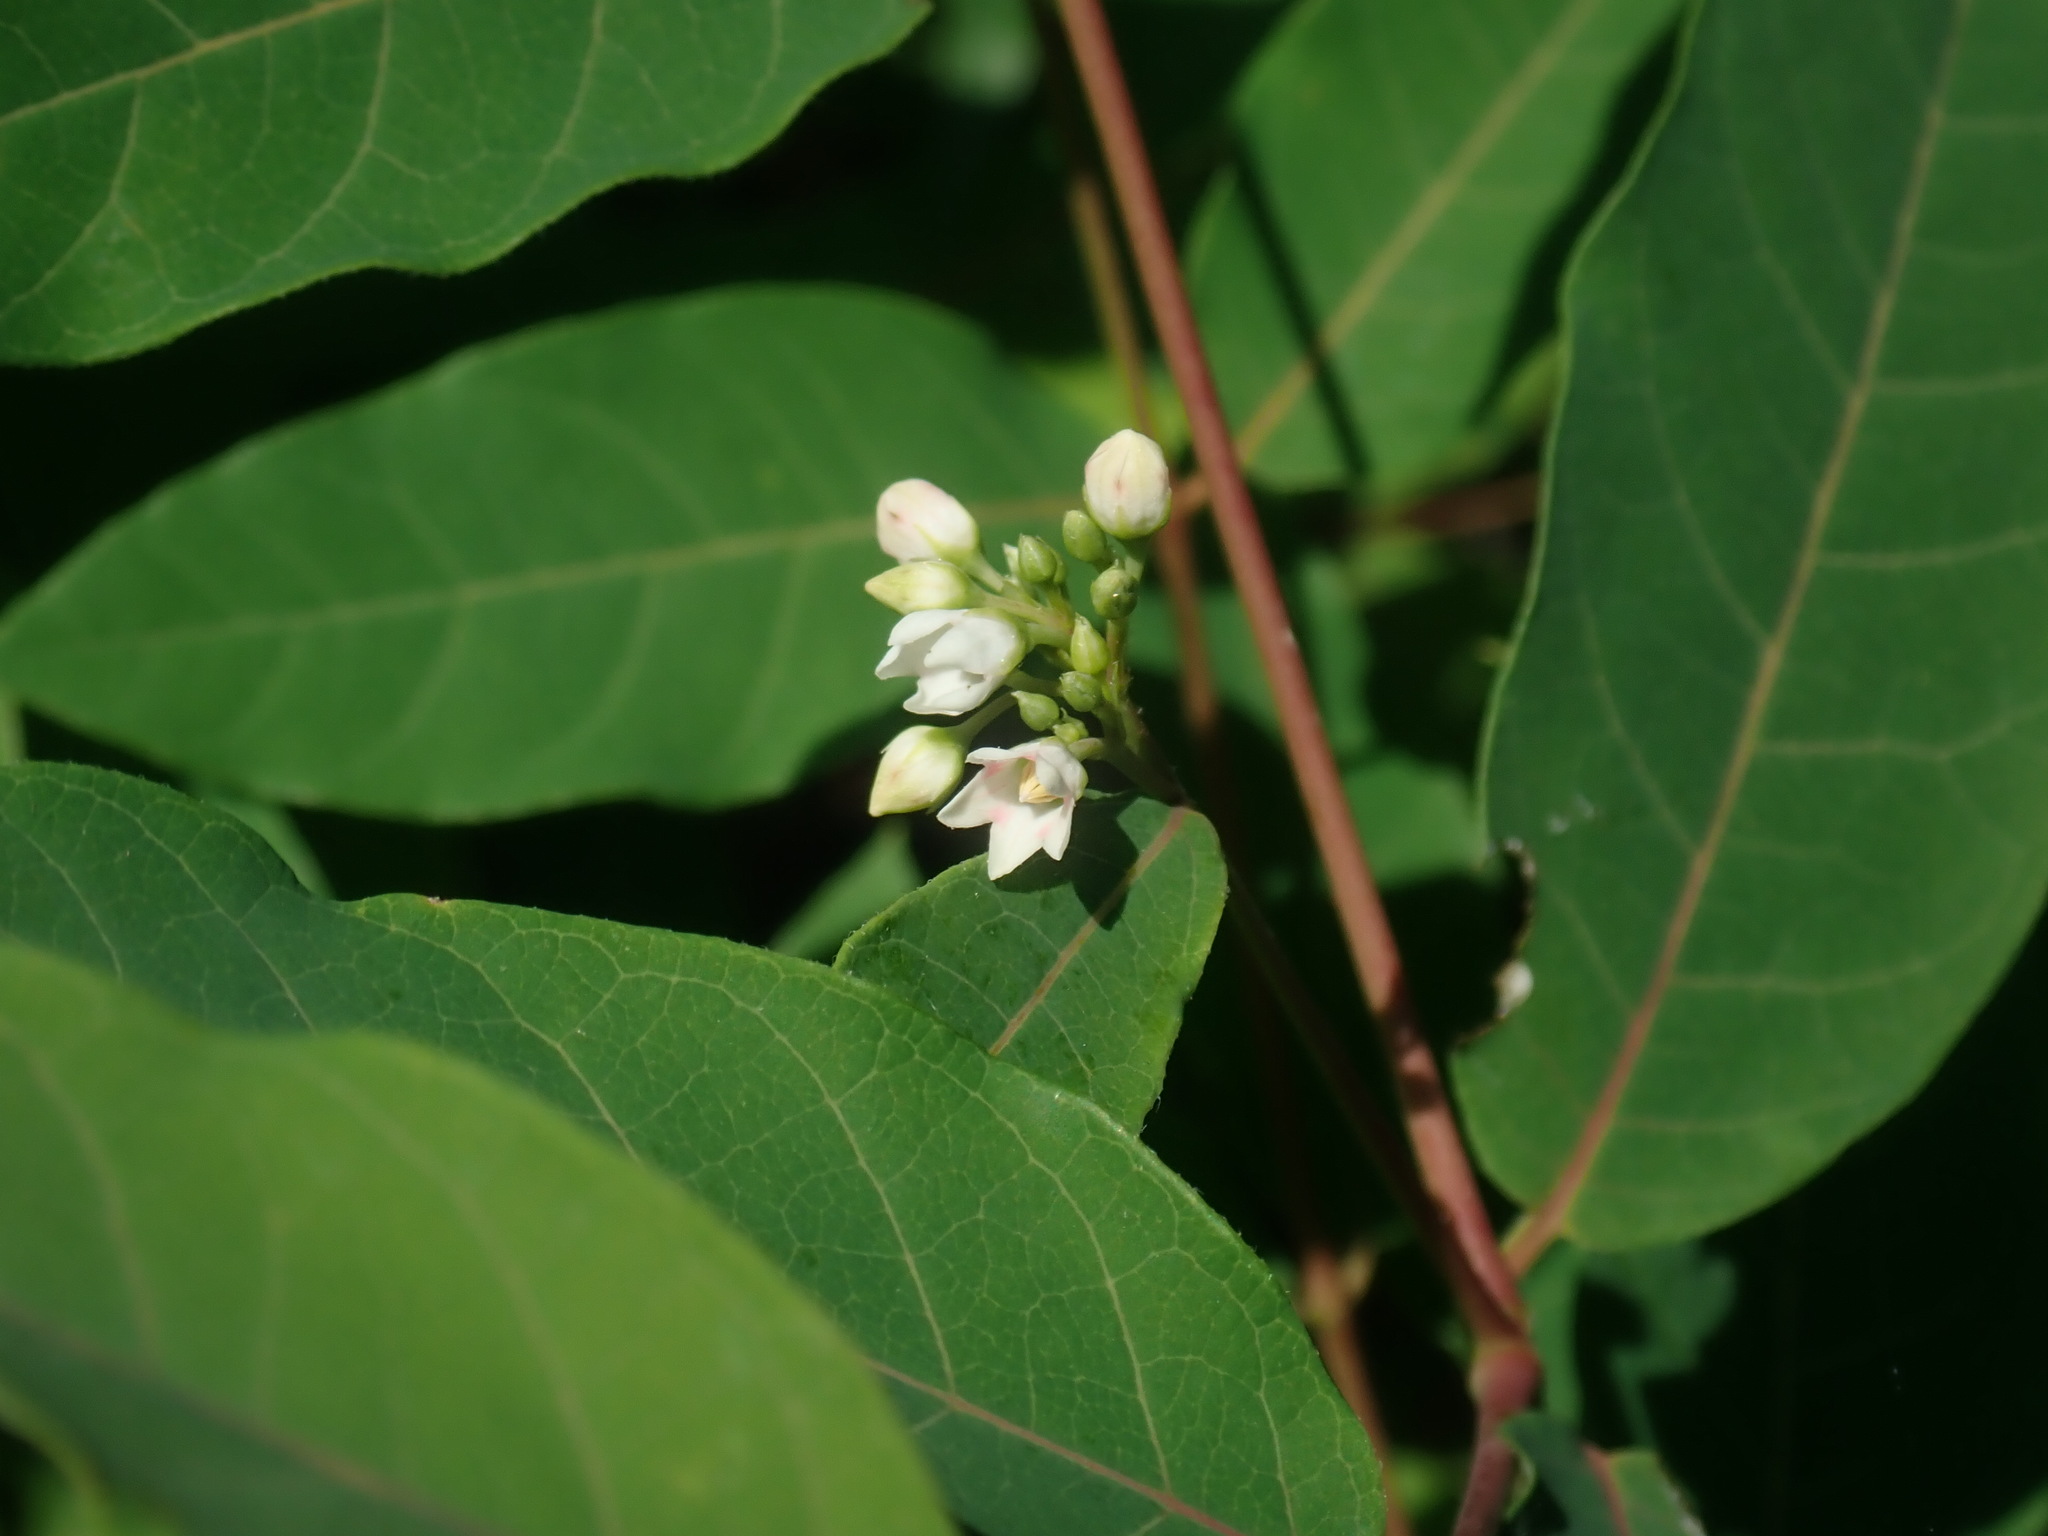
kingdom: Plantae
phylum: Tracheophyta
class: Magnoliopsida
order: Gentianales
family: Apocynaceae
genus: Apocynum
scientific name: Apocynum cannabinum
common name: Hemp dogbane
